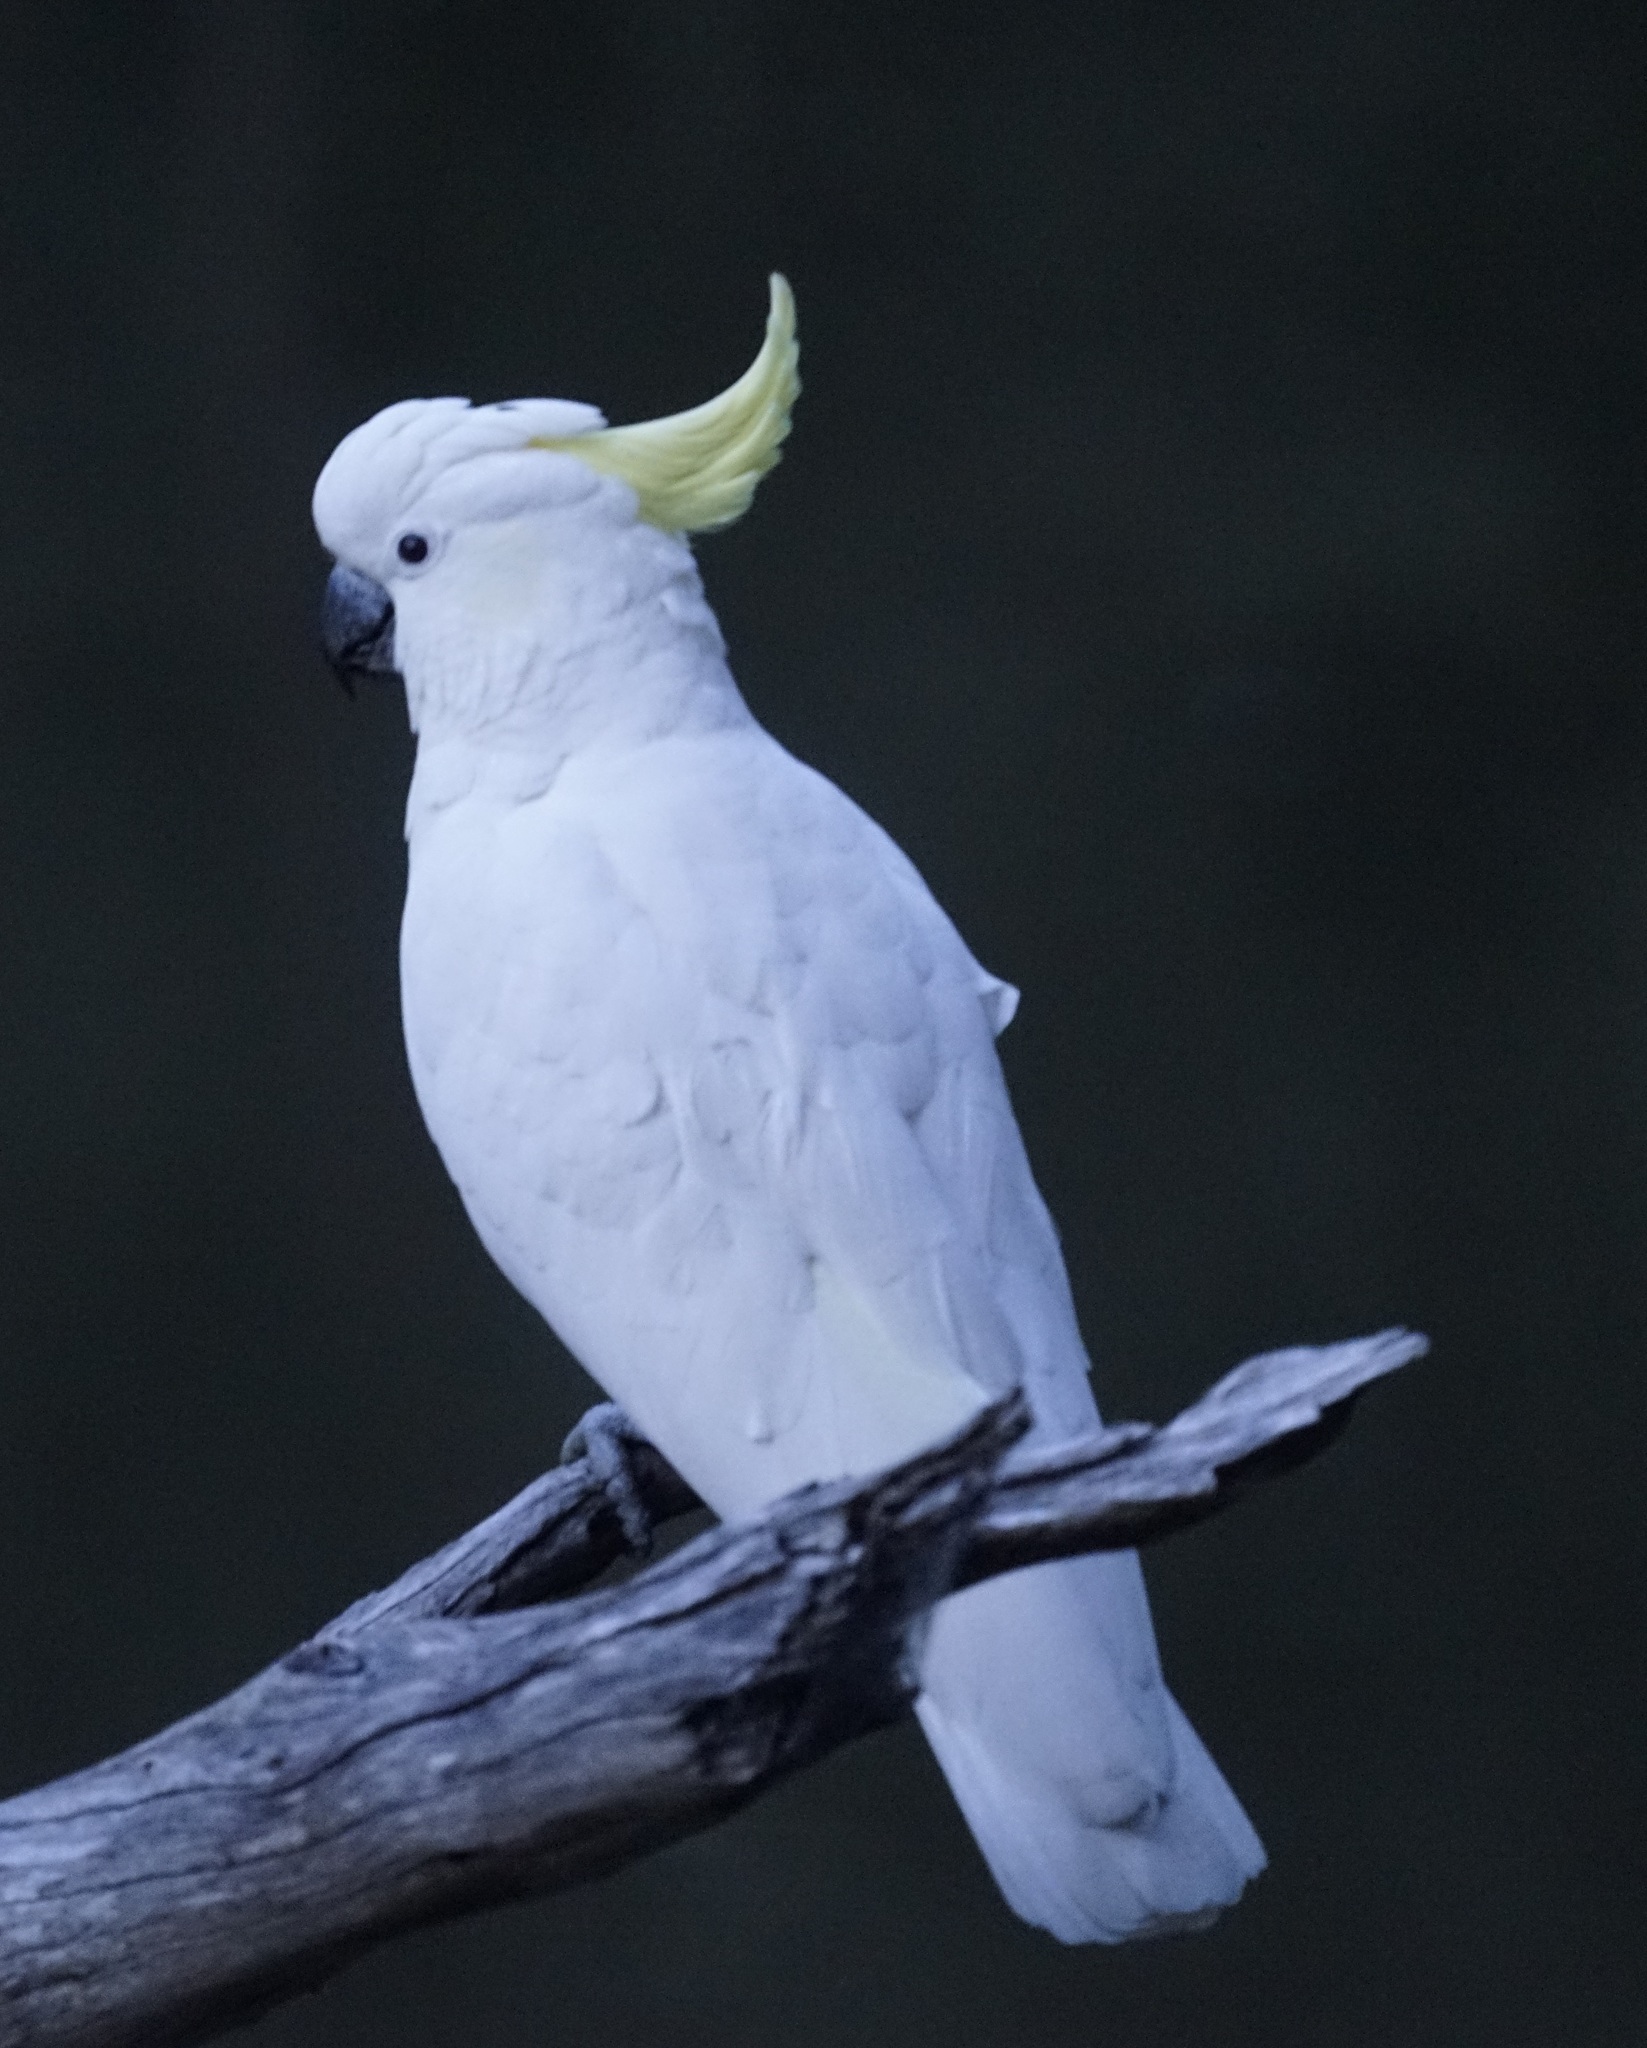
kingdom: Animalia
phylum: Chordata
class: Aves
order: Psittaciformes
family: Psittacidae
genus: Cacatua
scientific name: Cacatua galerita
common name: Sulphur-crested cockatoo
